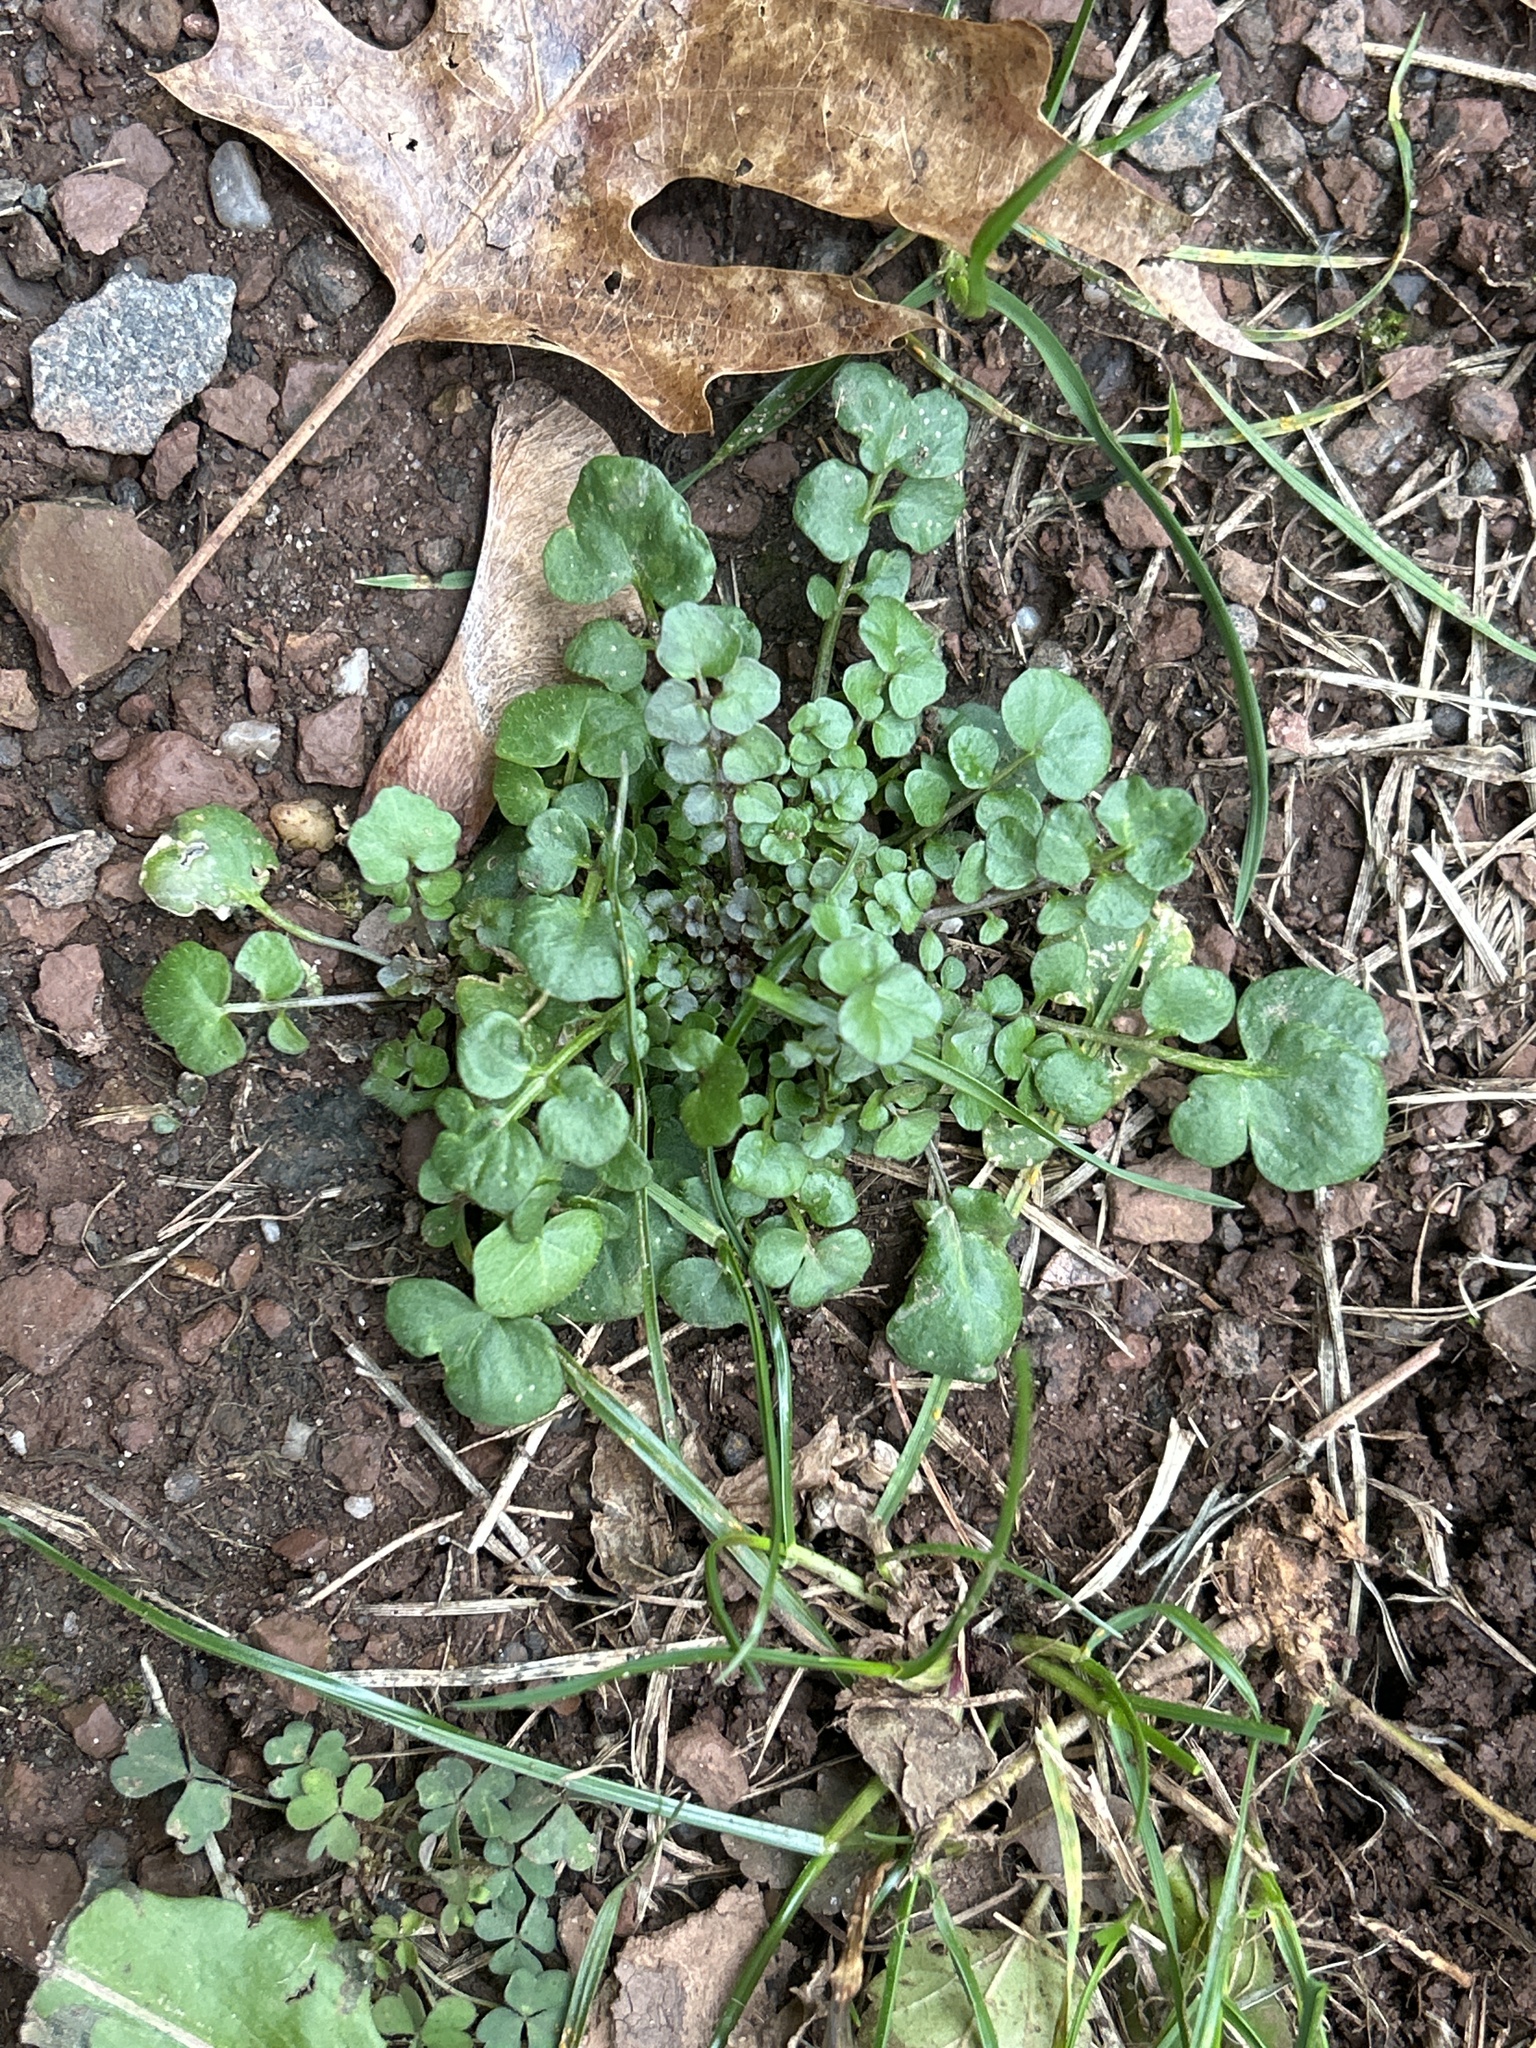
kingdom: Plantae
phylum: Tracheophyta
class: Magnoliopsida
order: Brassicales
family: Brassicaceae
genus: Cardamine
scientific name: Cardamine hirsuta
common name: Hairy bittercress
